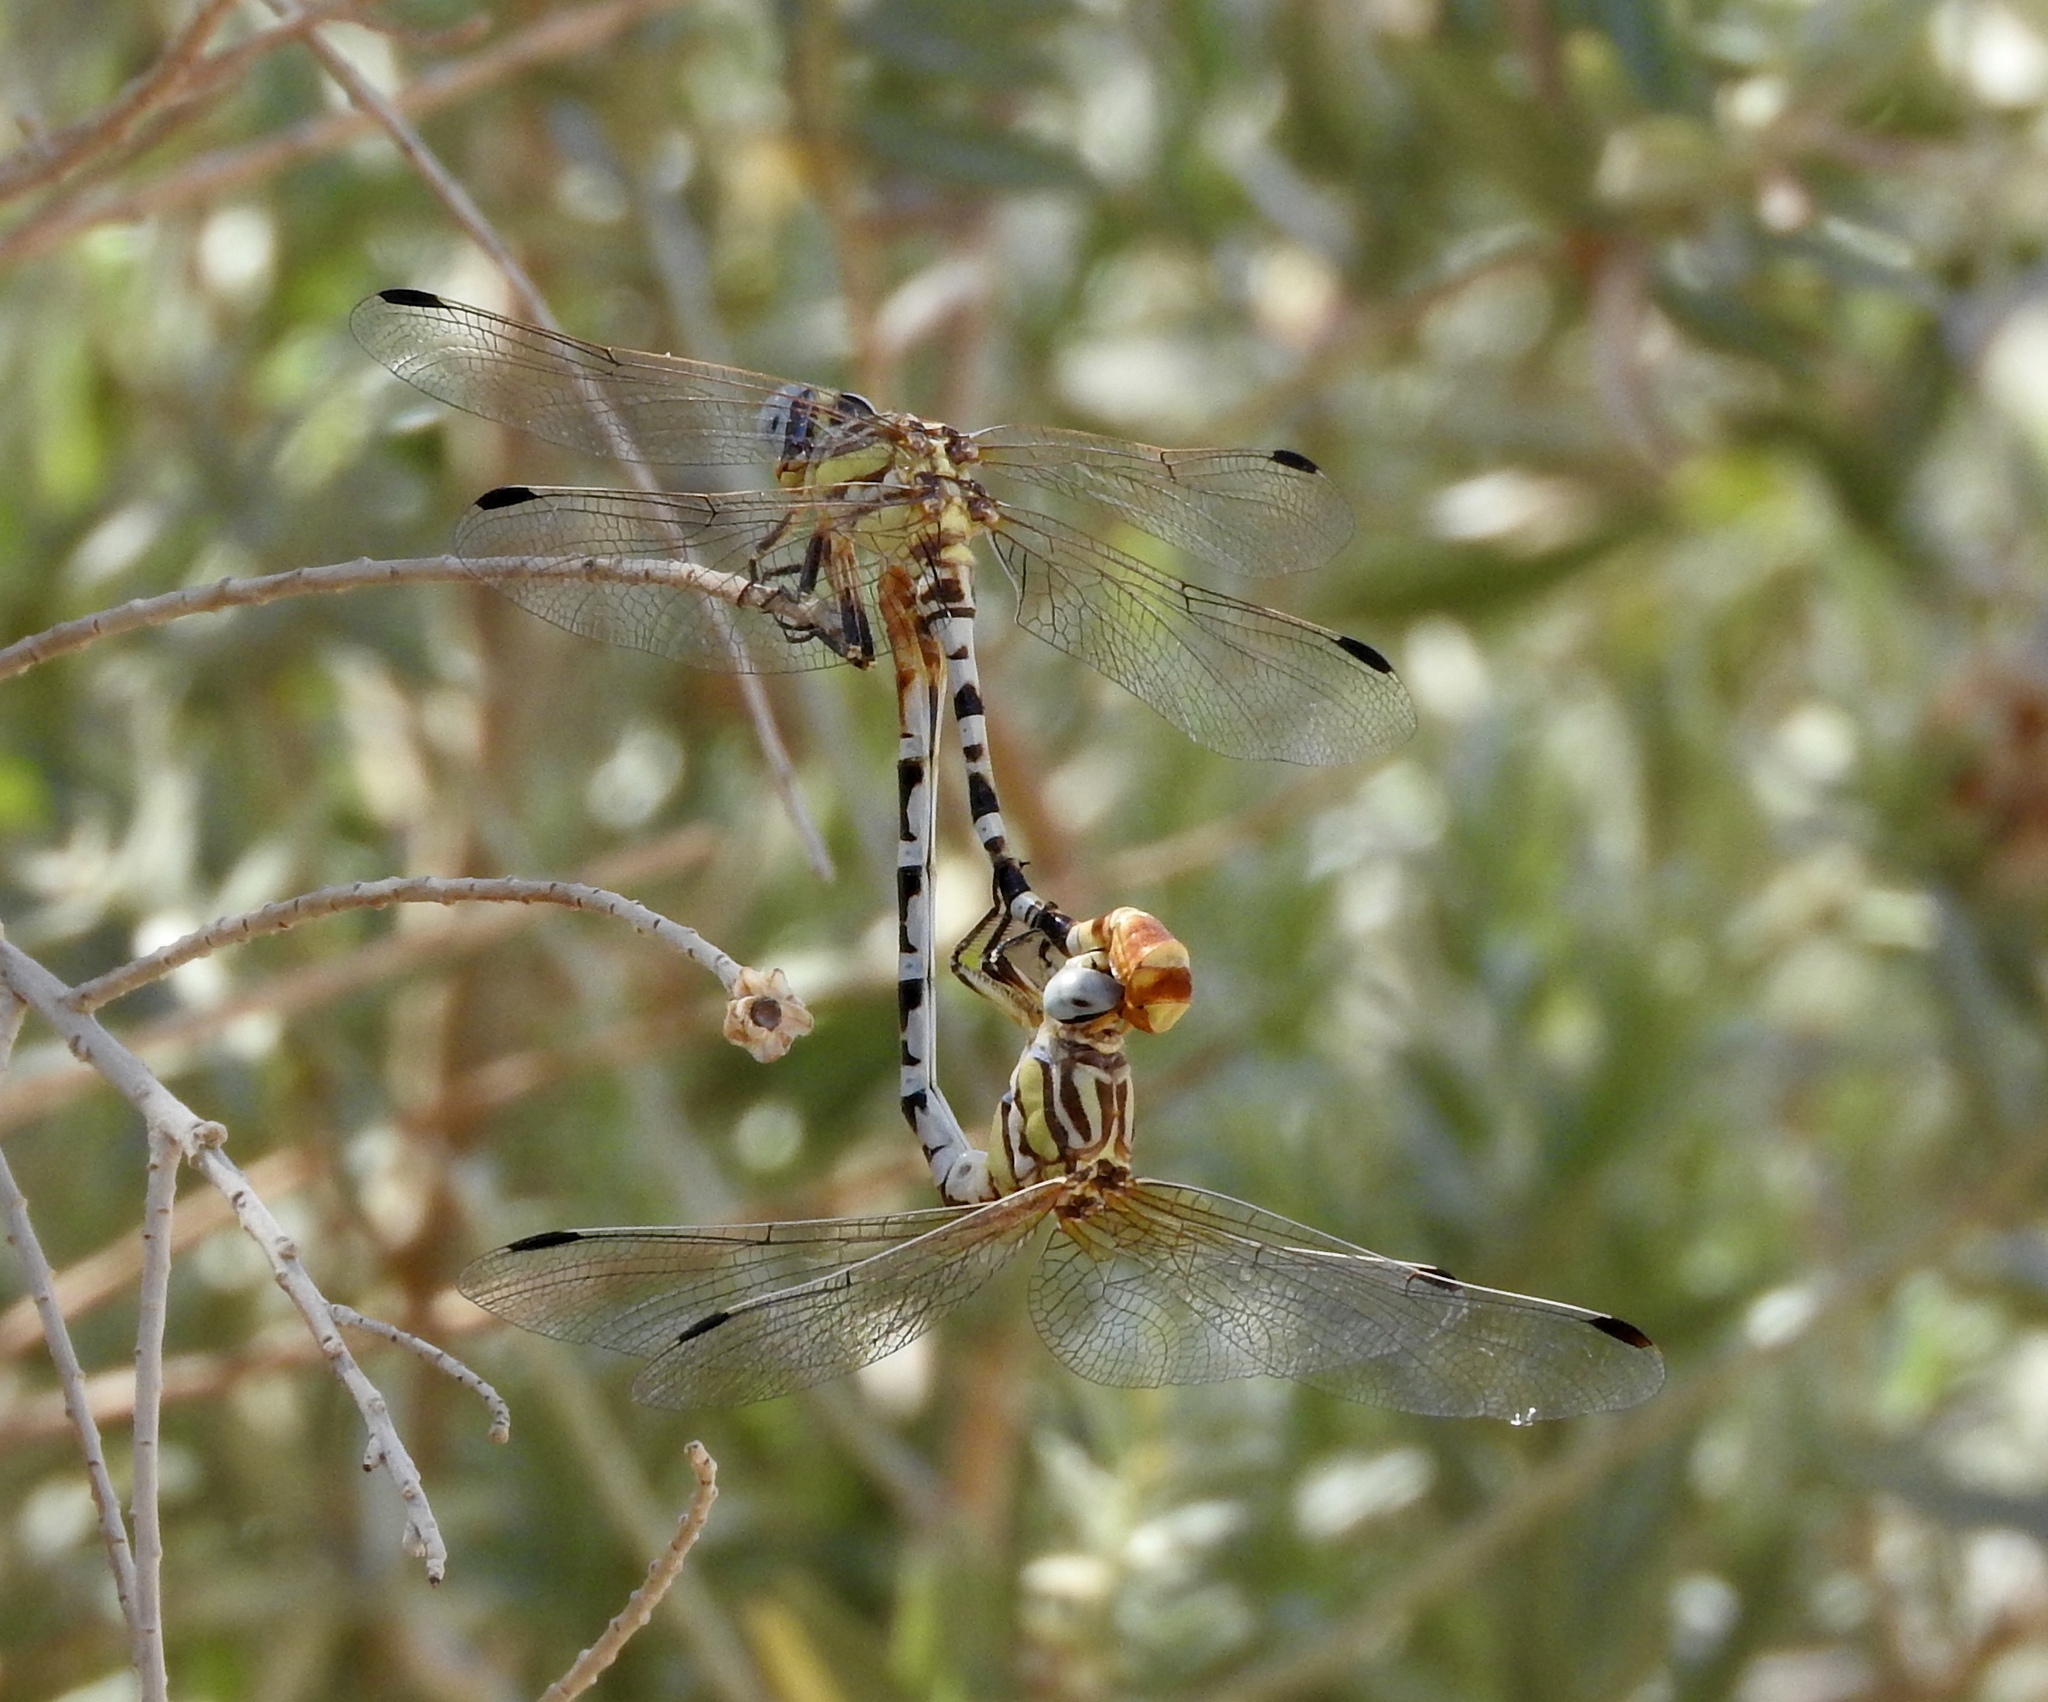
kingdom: Animalia
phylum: Arthropoda
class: Insecta
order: Odonata
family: Gomphidae
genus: Erpetogomphus
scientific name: Erpetogomphus compositus
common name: White-belted ringtail
